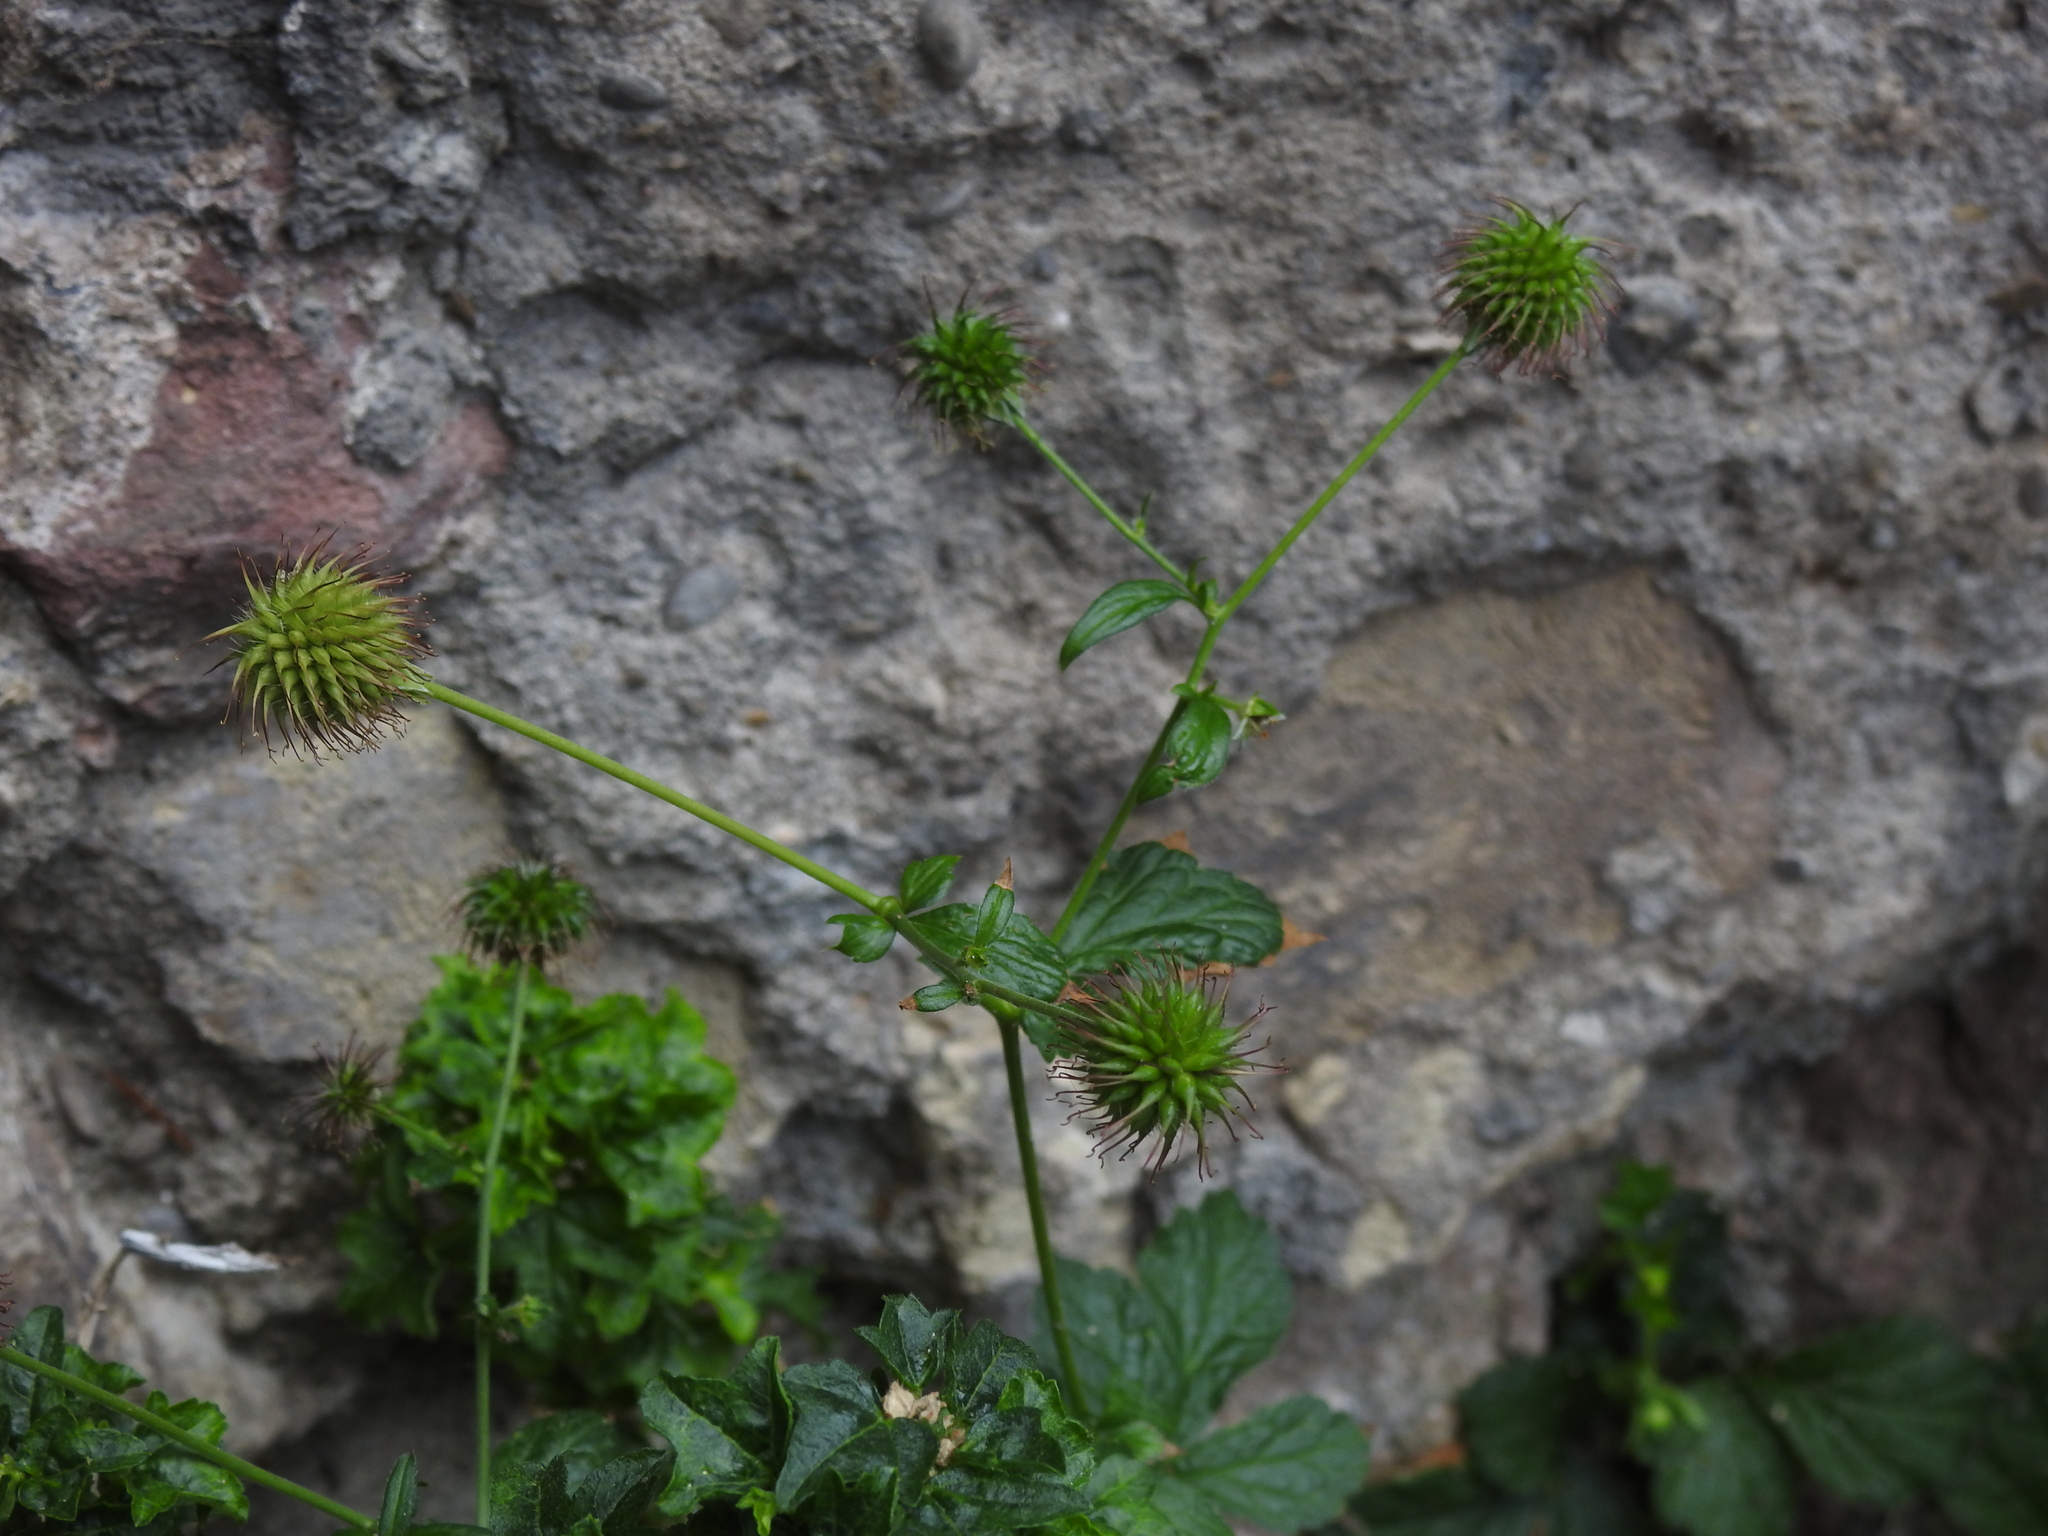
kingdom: Plantae
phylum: Tracheophyta
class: Magnoliopsida
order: Rosales
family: Rosaceae
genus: Geum
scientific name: Geum urbanum
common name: Wood avens
